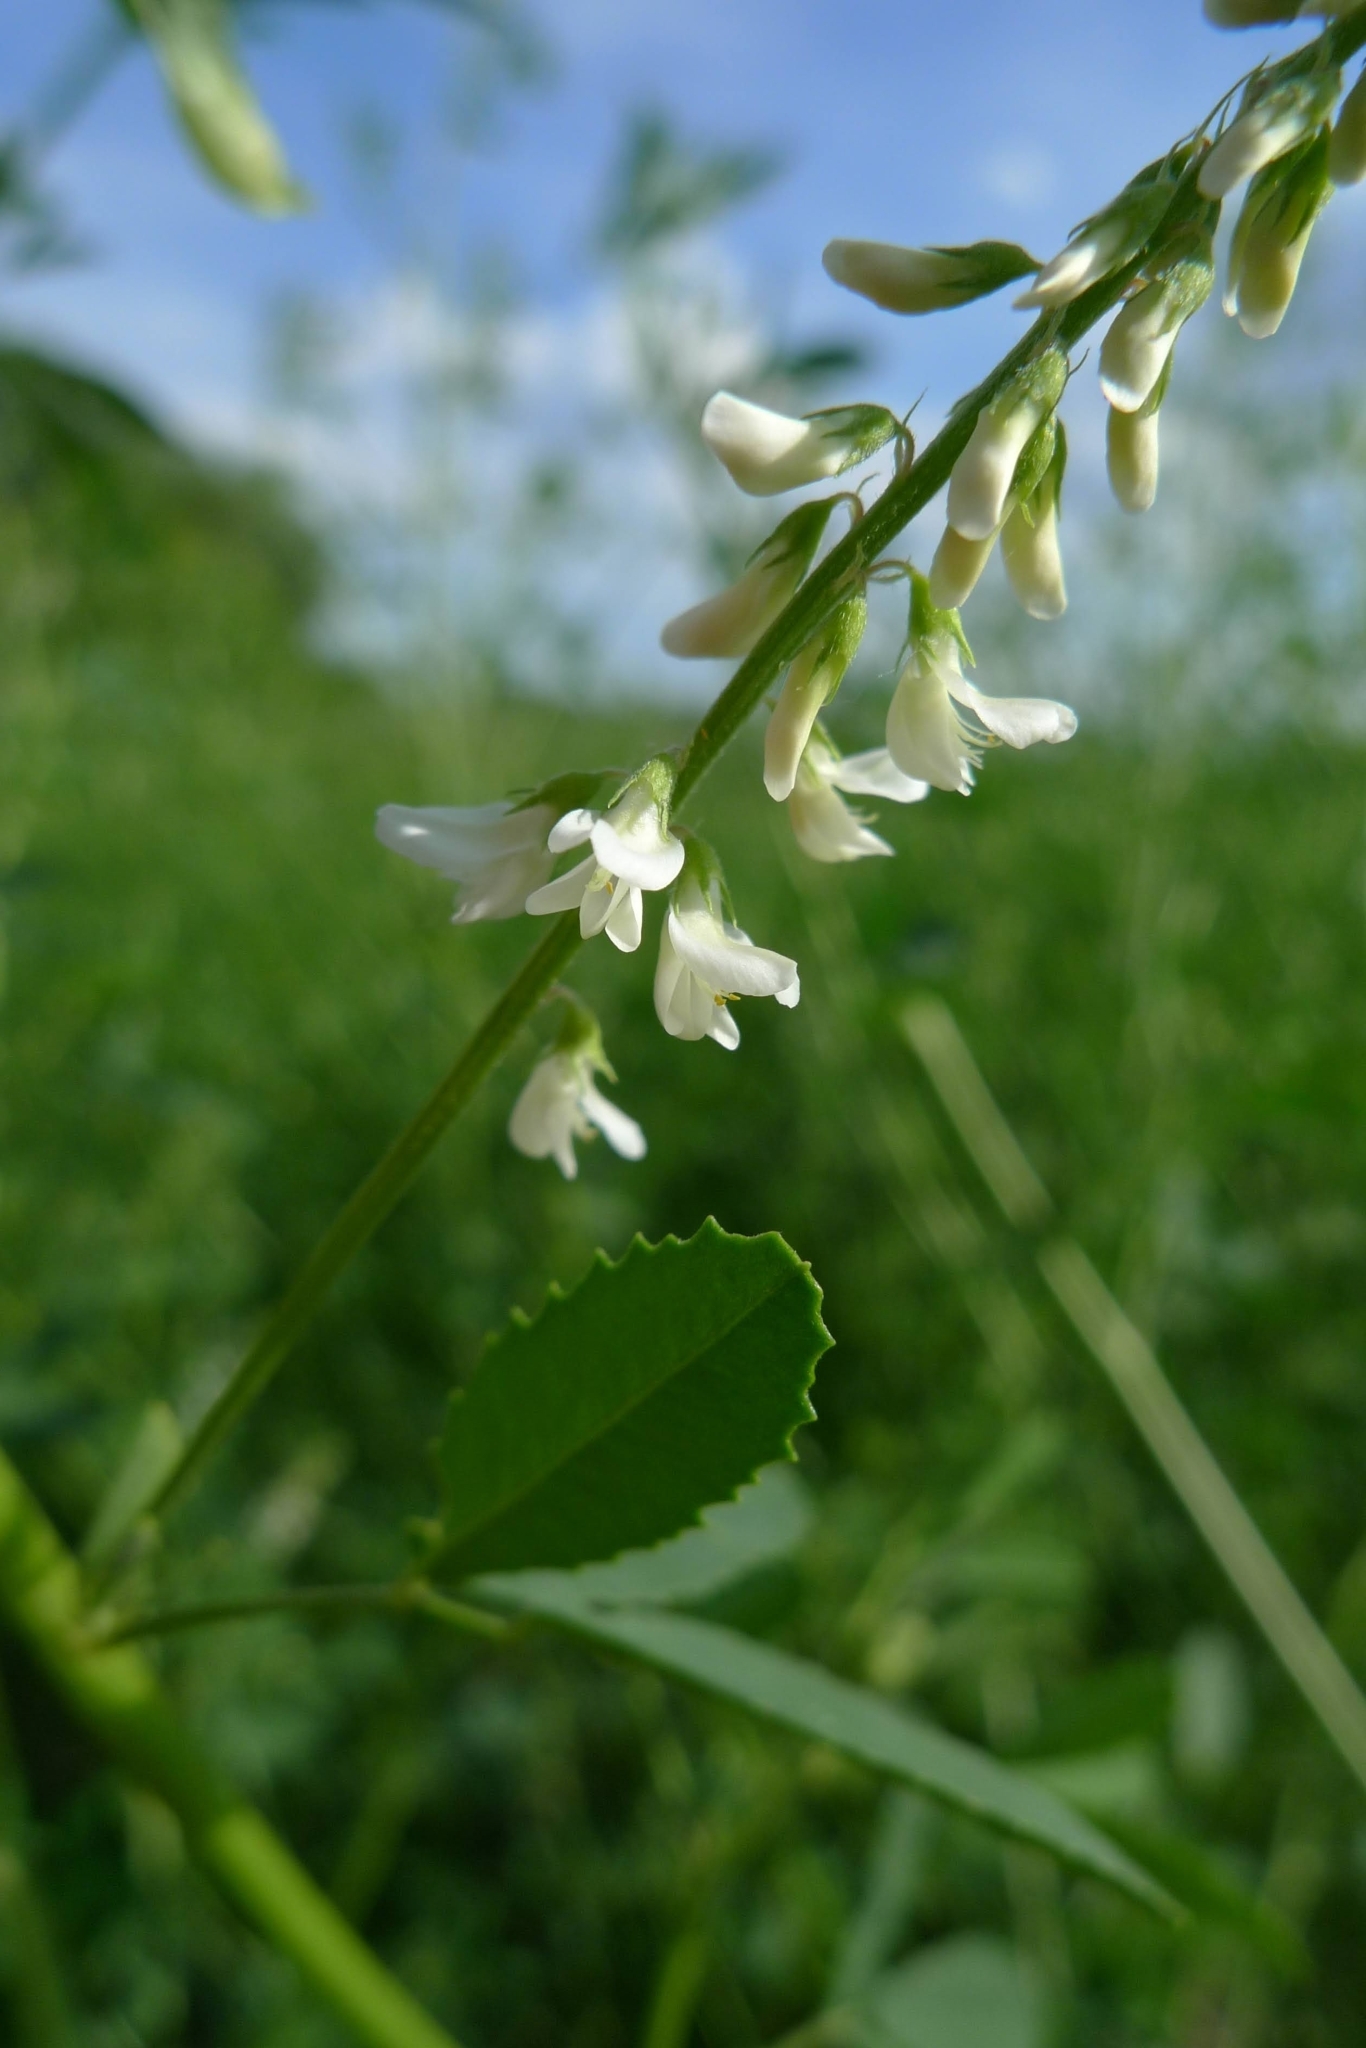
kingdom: Plantae
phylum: Tracheophyta
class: Magnoliopsida
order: Fabales
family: Fabaceae
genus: Melilotus
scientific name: Melilotus albus
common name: White melilot
